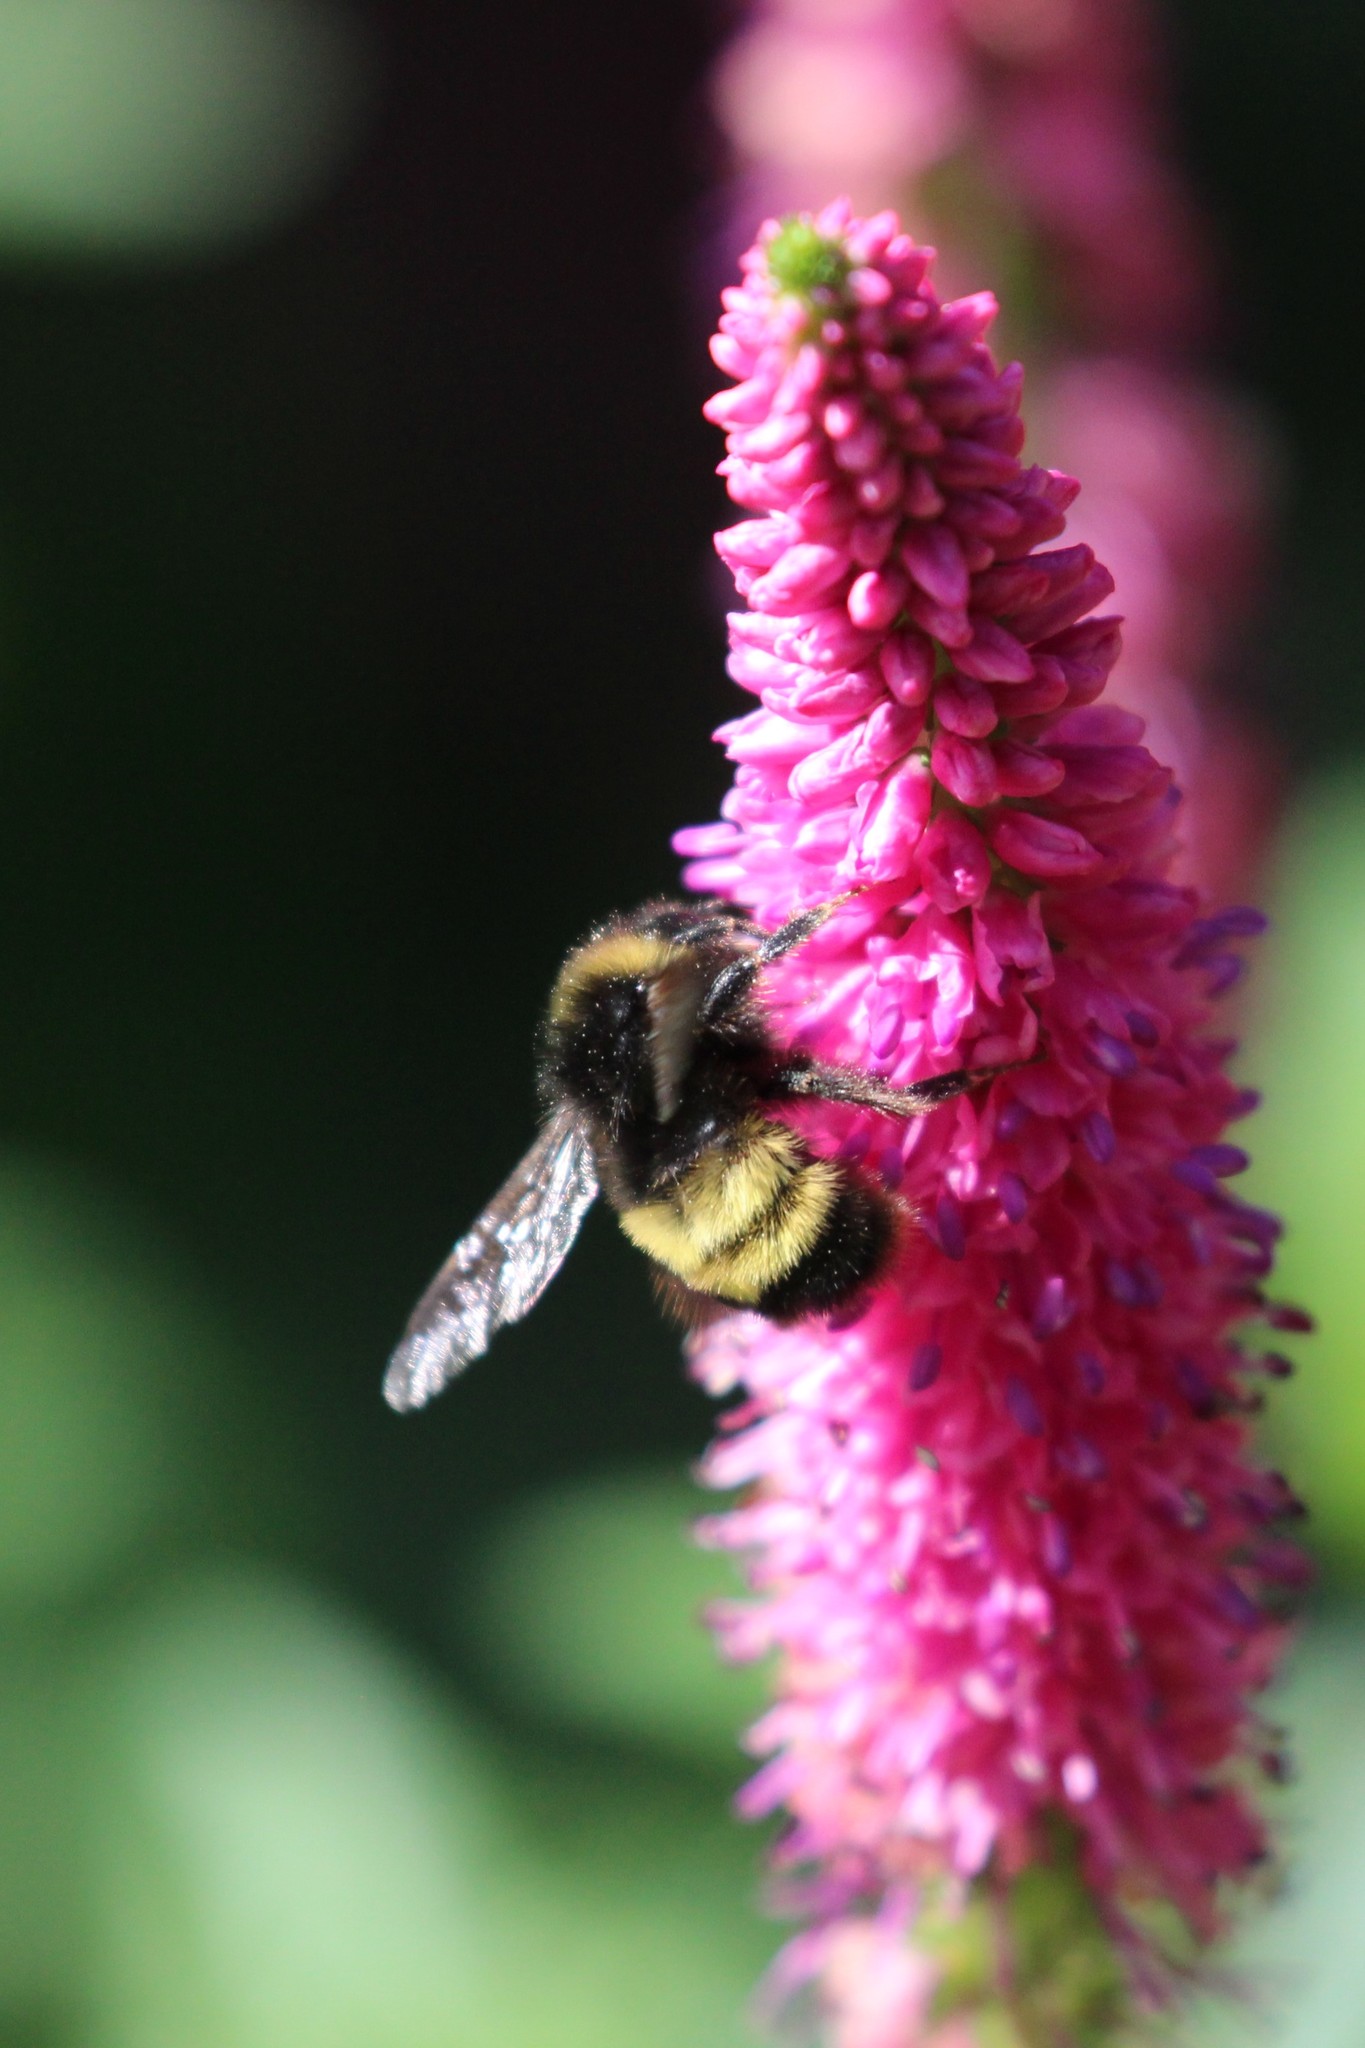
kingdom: Animalia
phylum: Arthropoda
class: Insecta
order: Hymenoptera
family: Apidae
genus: Bombus
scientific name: Bombus terricola
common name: Yellow-banded bumble bee
